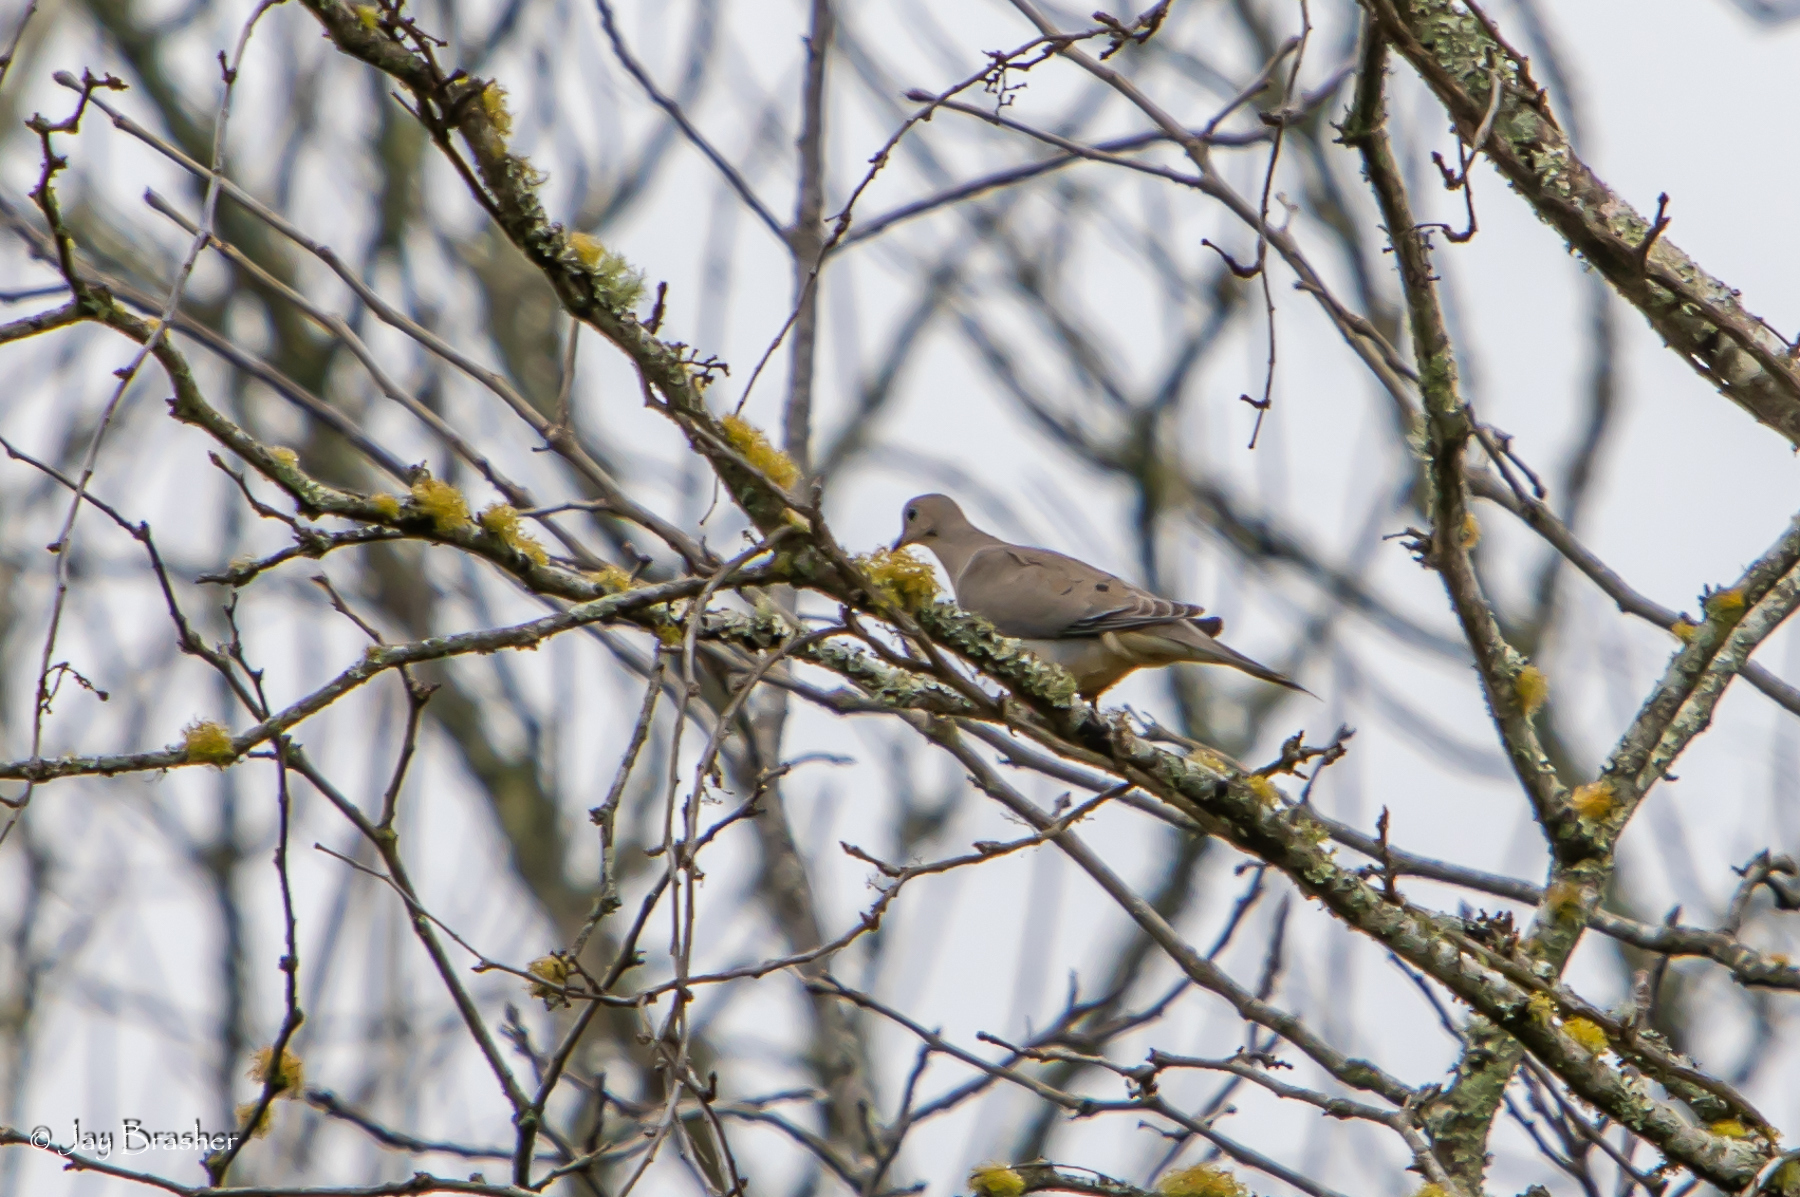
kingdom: Animalia
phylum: Chordata
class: Aves
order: Columbiformes
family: Columbidae
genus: Zenaida
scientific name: Zenaida macroura
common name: Mourning dove
